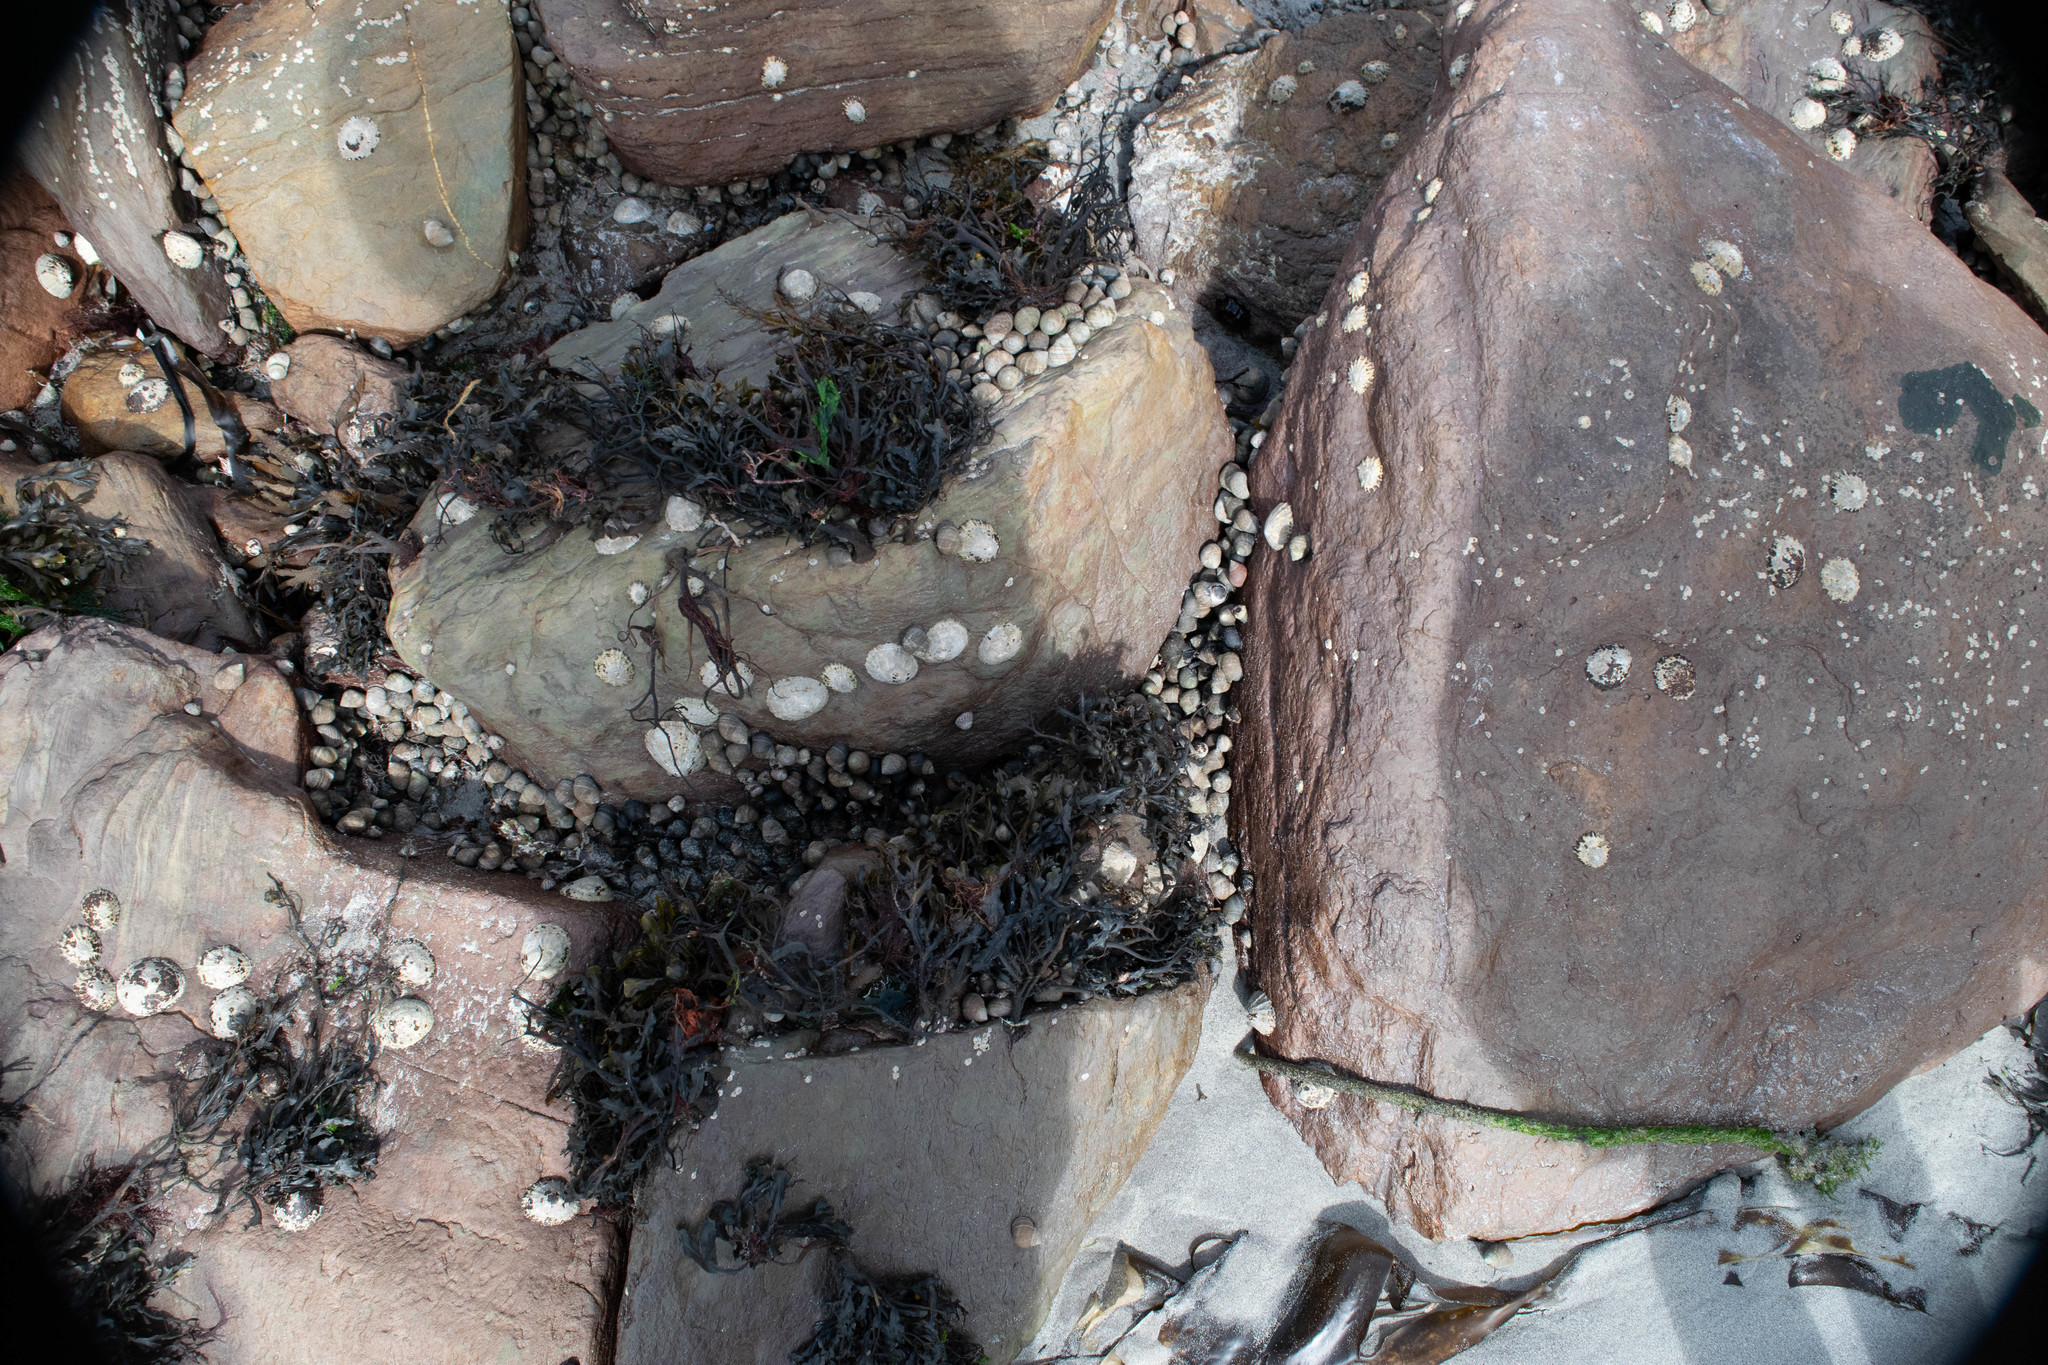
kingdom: Animalia
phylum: Mollusca
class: Gastropoda
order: Littorinimorpha
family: Littorinidae
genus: Littorina
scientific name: Littorina littorea
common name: Common periwinkle
